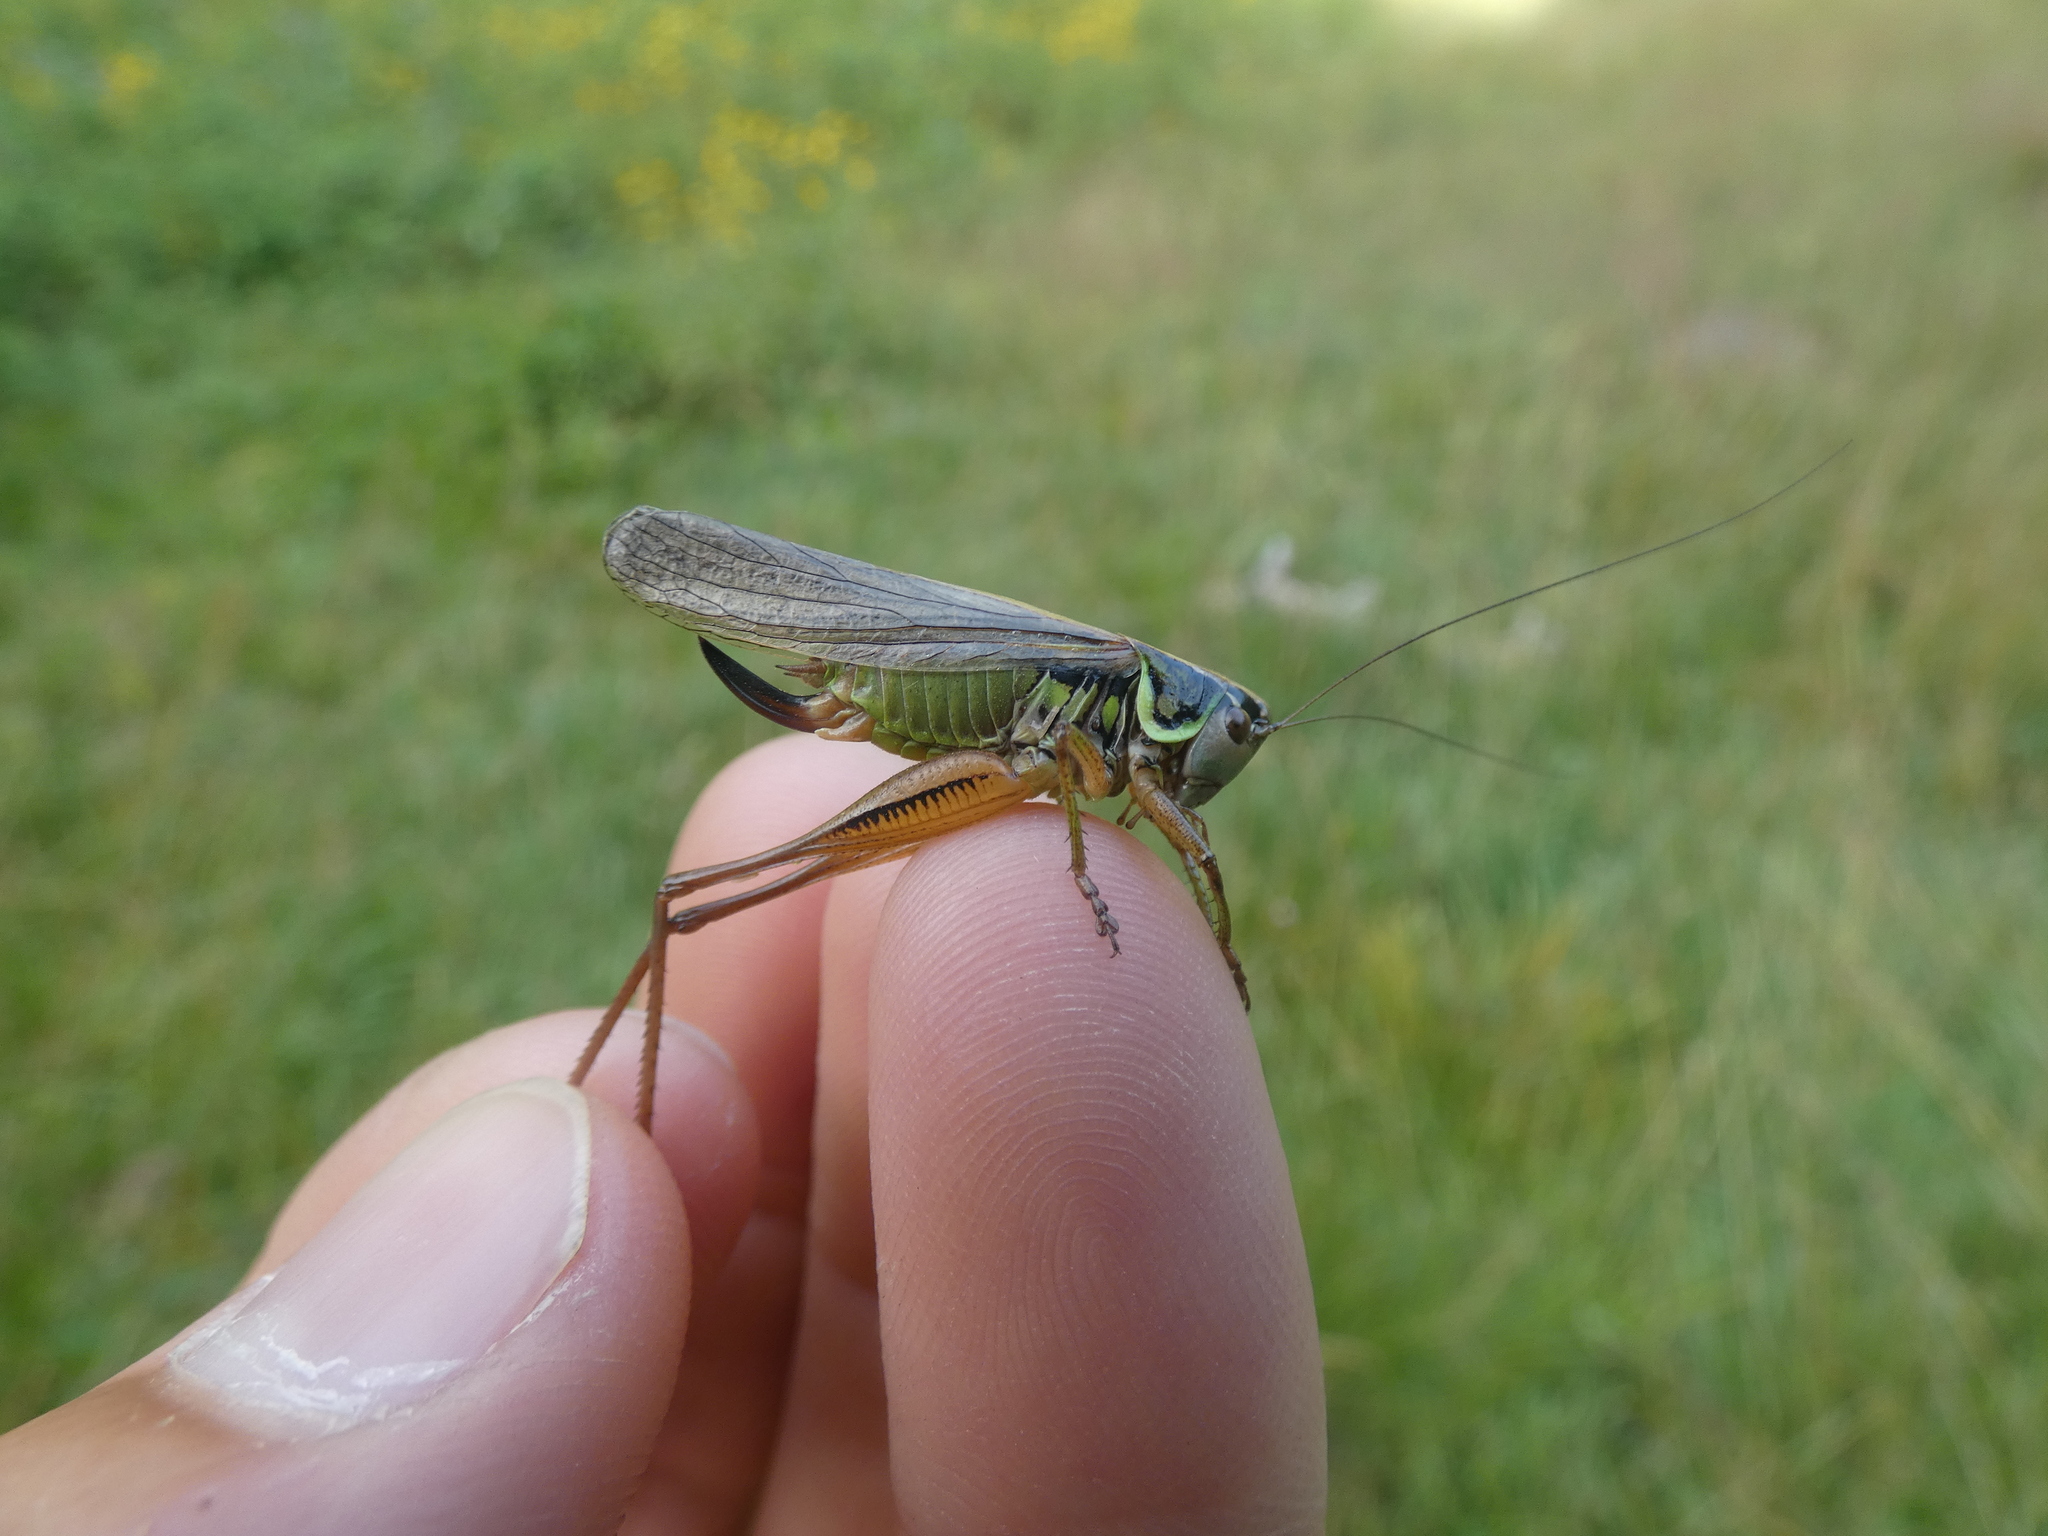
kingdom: Animalia
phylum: Arthropoda
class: Insecta
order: Orthoptera
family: Tettigoniidae
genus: Roeseliana
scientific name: Roeseliana roeselii
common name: Roesel's bush cricket
